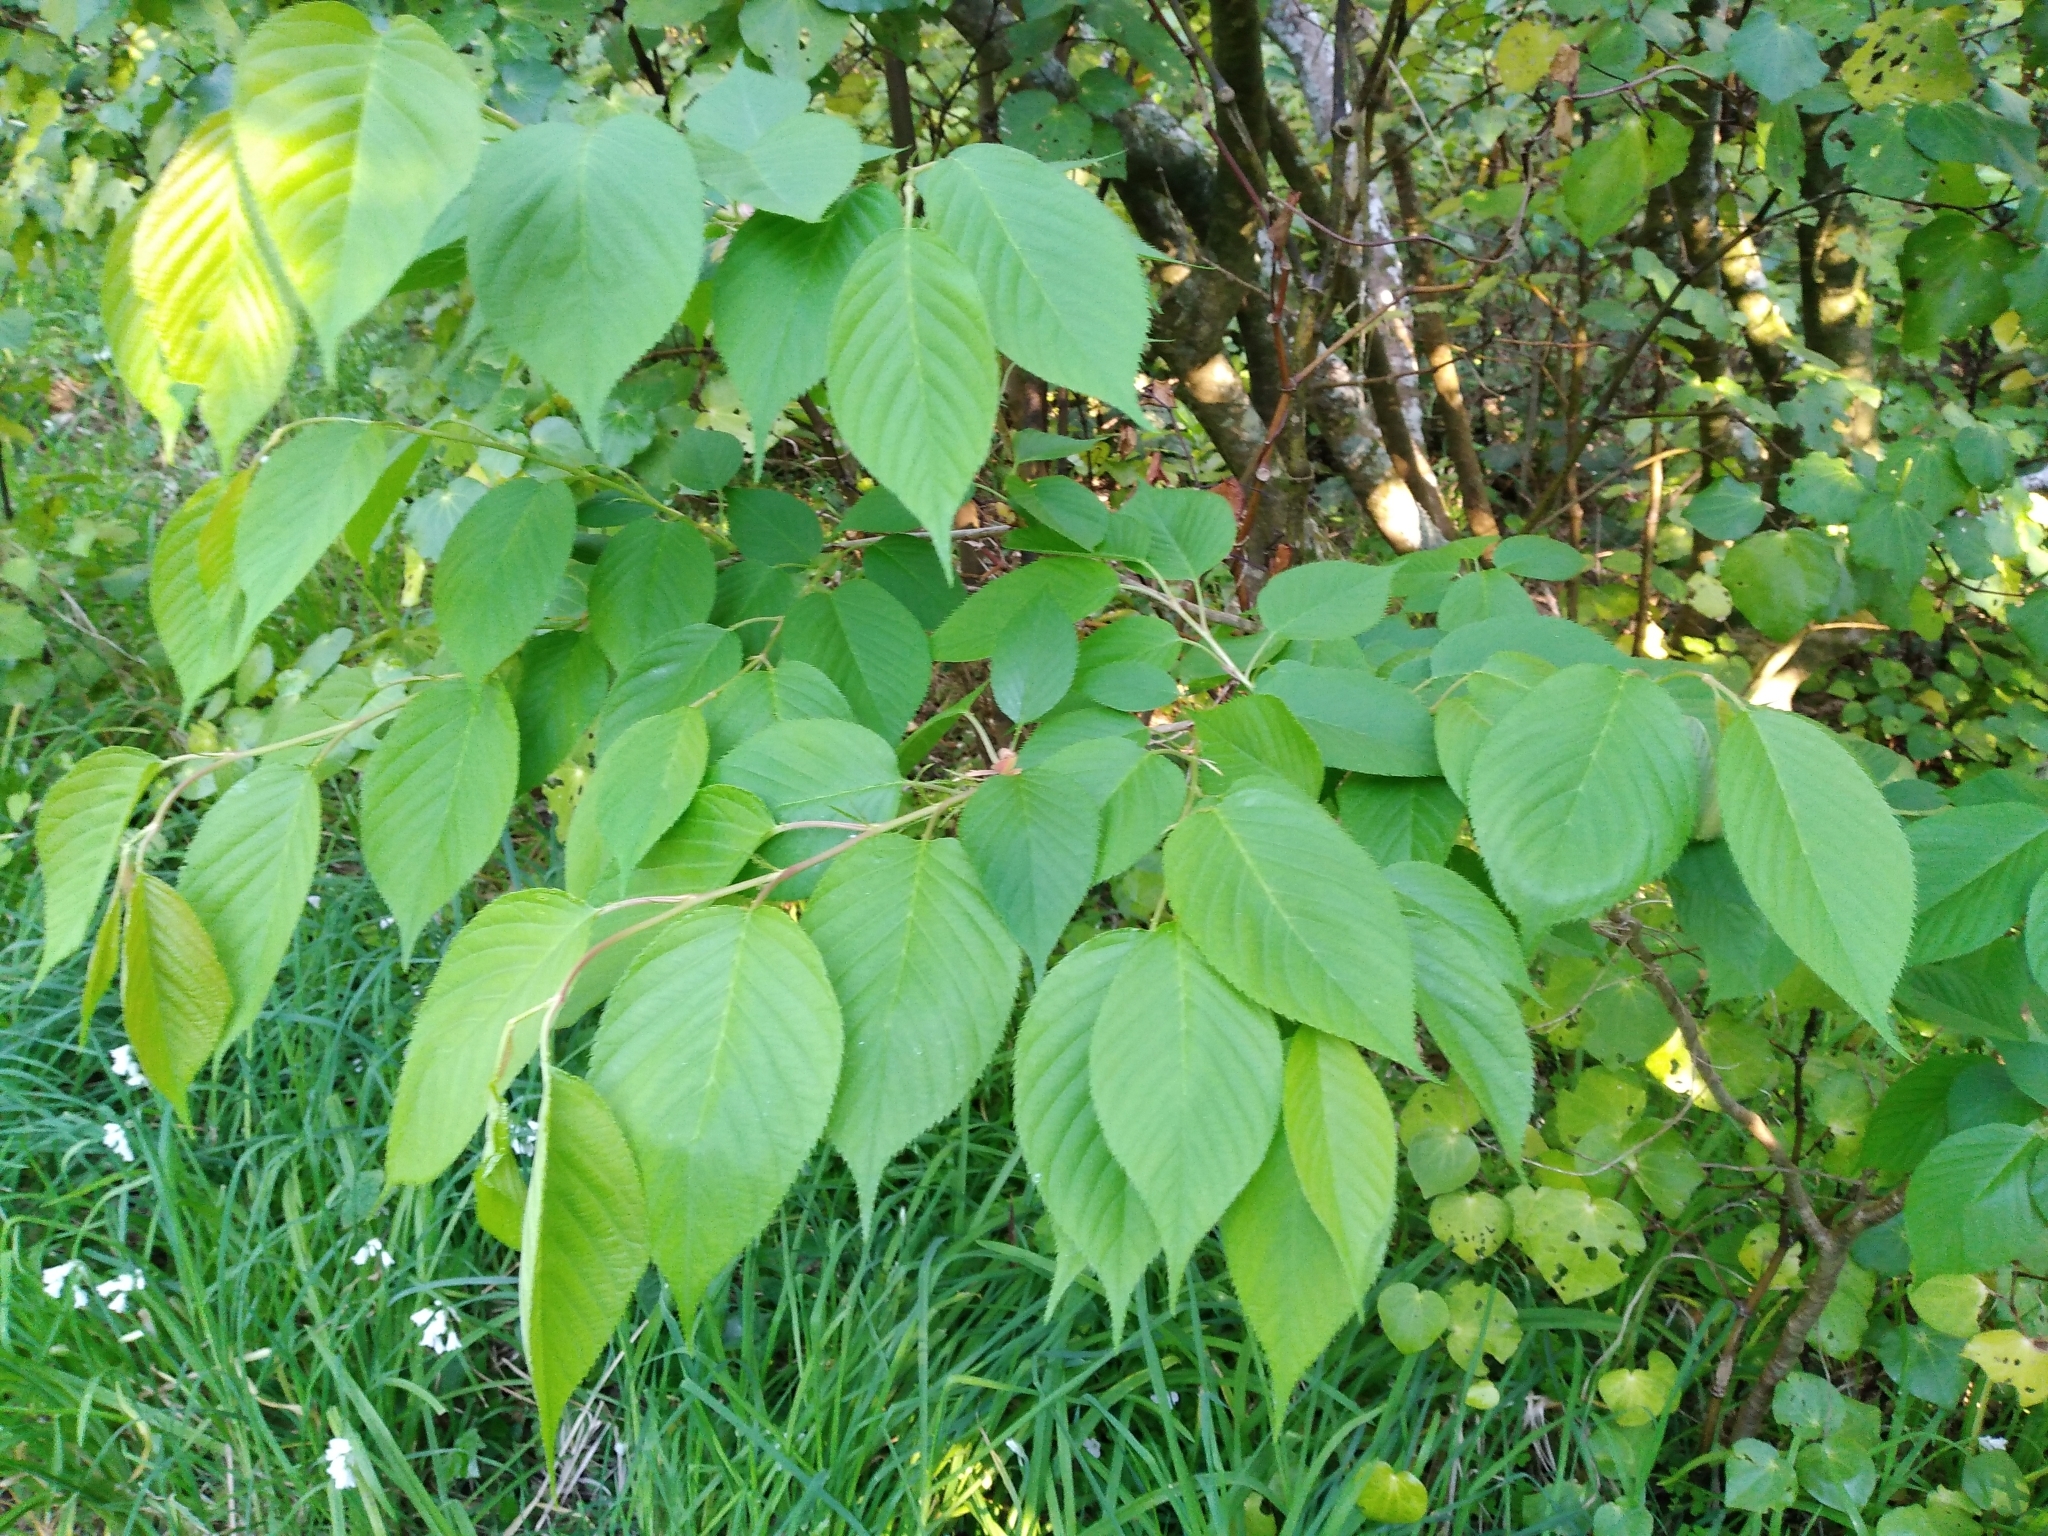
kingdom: Plantae
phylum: Tracheophyta
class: Magnoliopsida
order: Rosales
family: Rosaceae
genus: Prunus
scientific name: Prunus serrulata
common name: Japanese cherry
